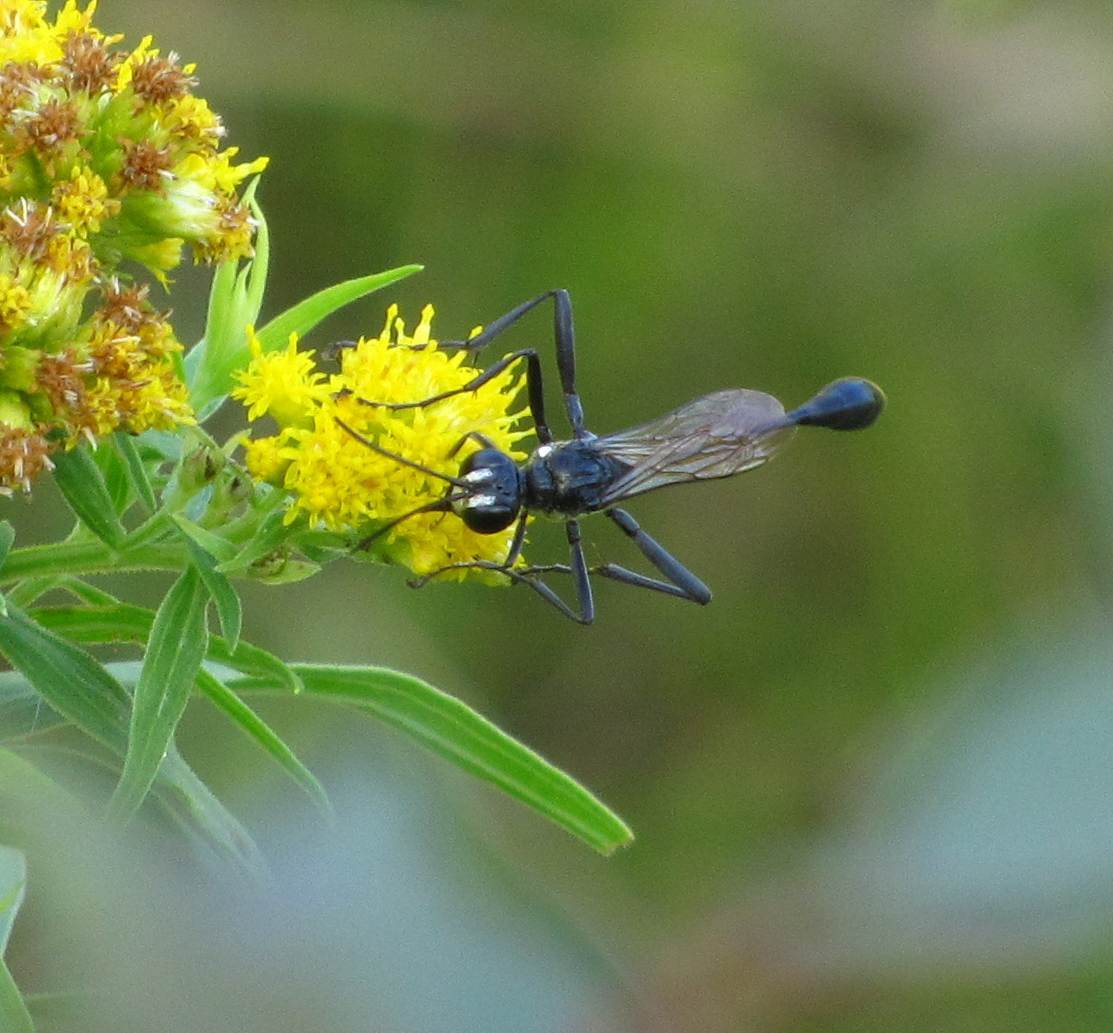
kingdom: Animalia
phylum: Arthropoda
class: Insecta
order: Hymenoptera
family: Sphecidae
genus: Eremnophila
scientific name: Eremnophila aureonotata
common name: Gold-marked thread-waisted wasp
